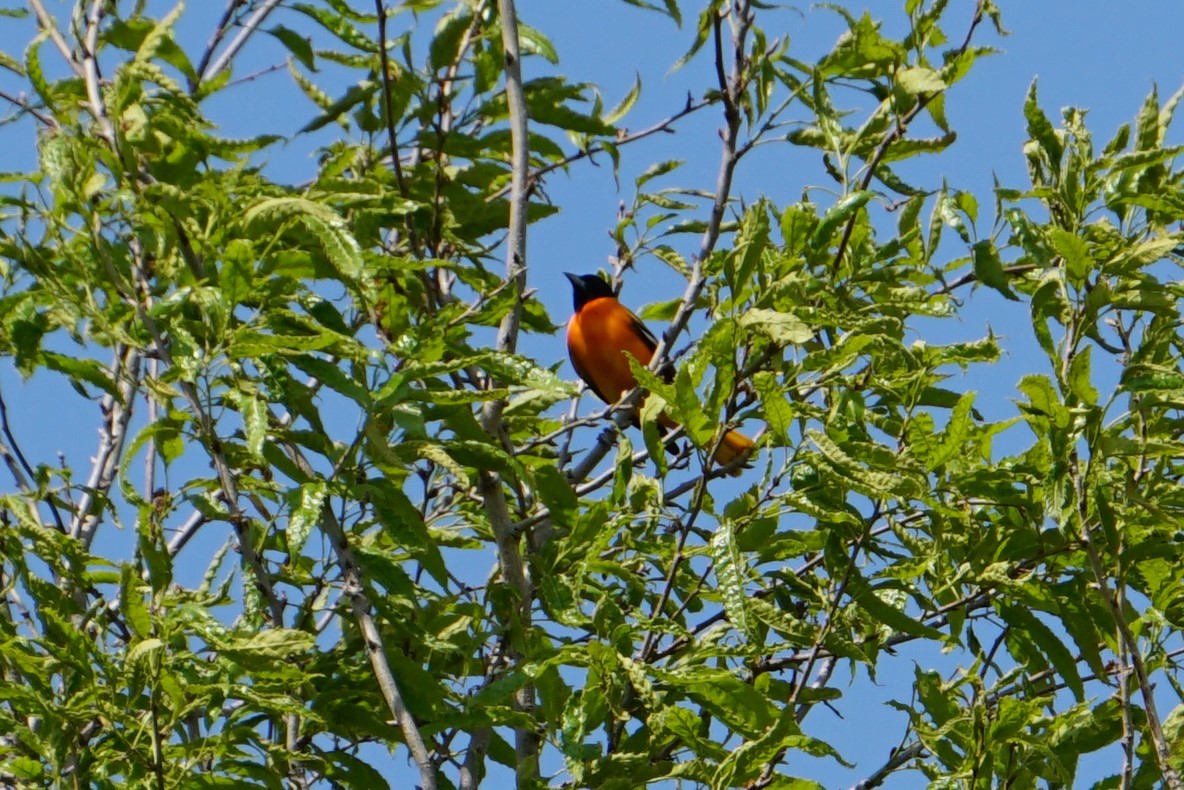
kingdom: Animalia
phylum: Chordata
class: Aves
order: Passeriformes
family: Icteridae
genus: Icterus
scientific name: Icterus galbula
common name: Baltimore oriole
